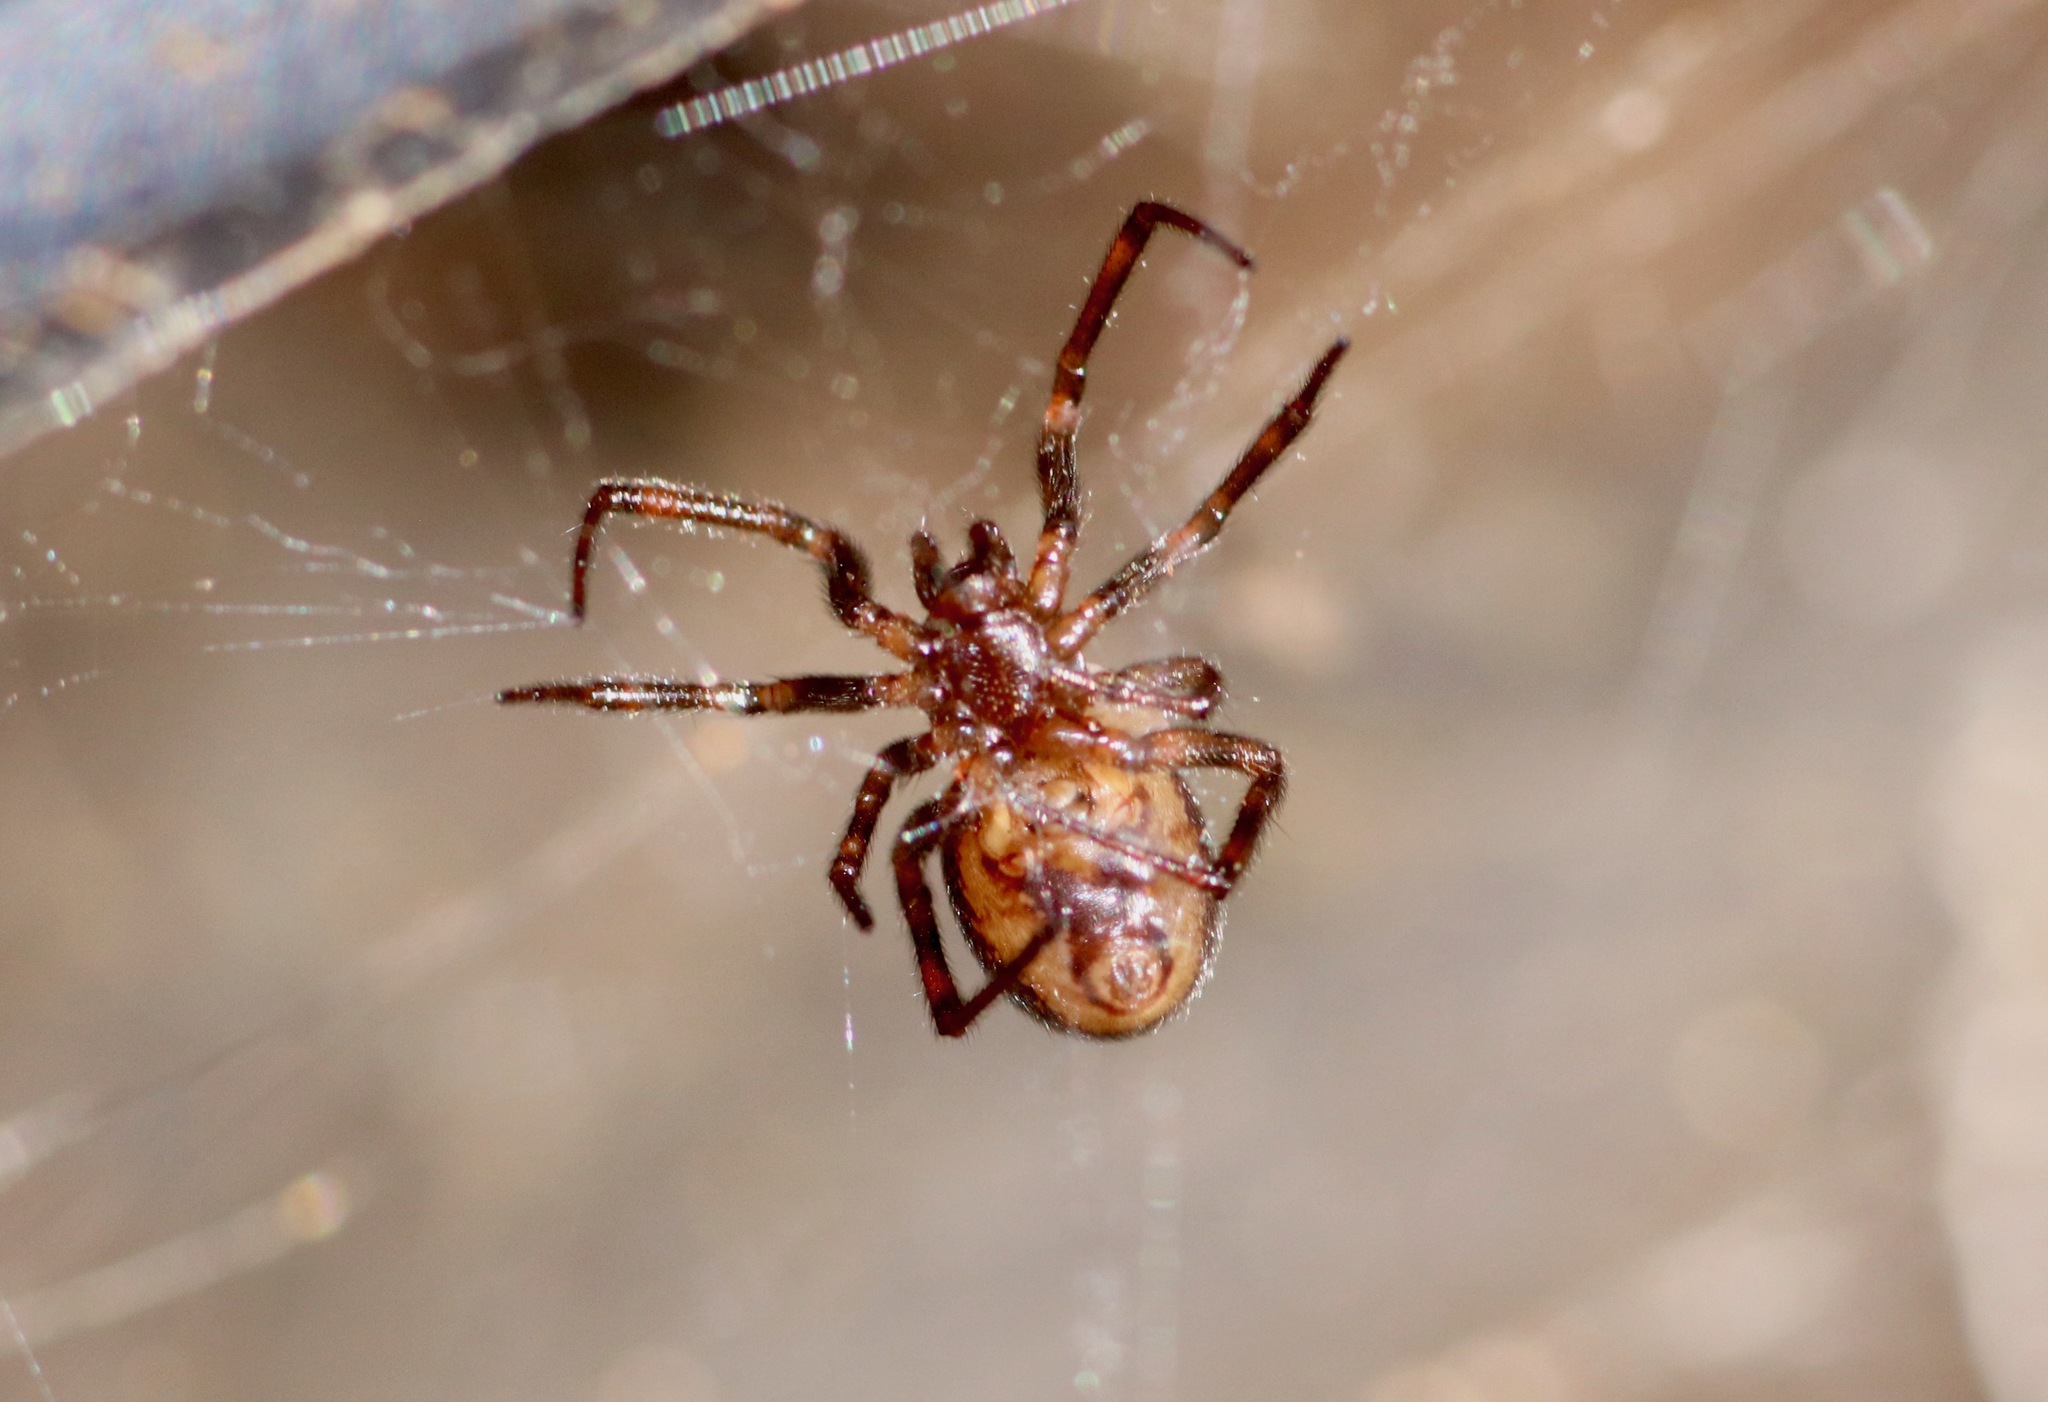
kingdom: Animalia
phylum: Arthropoda
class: Arachnida
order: Araneae
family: Theridiidae
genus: Steatoda
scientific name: Steatoda borealis
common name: Boreal combfoot
